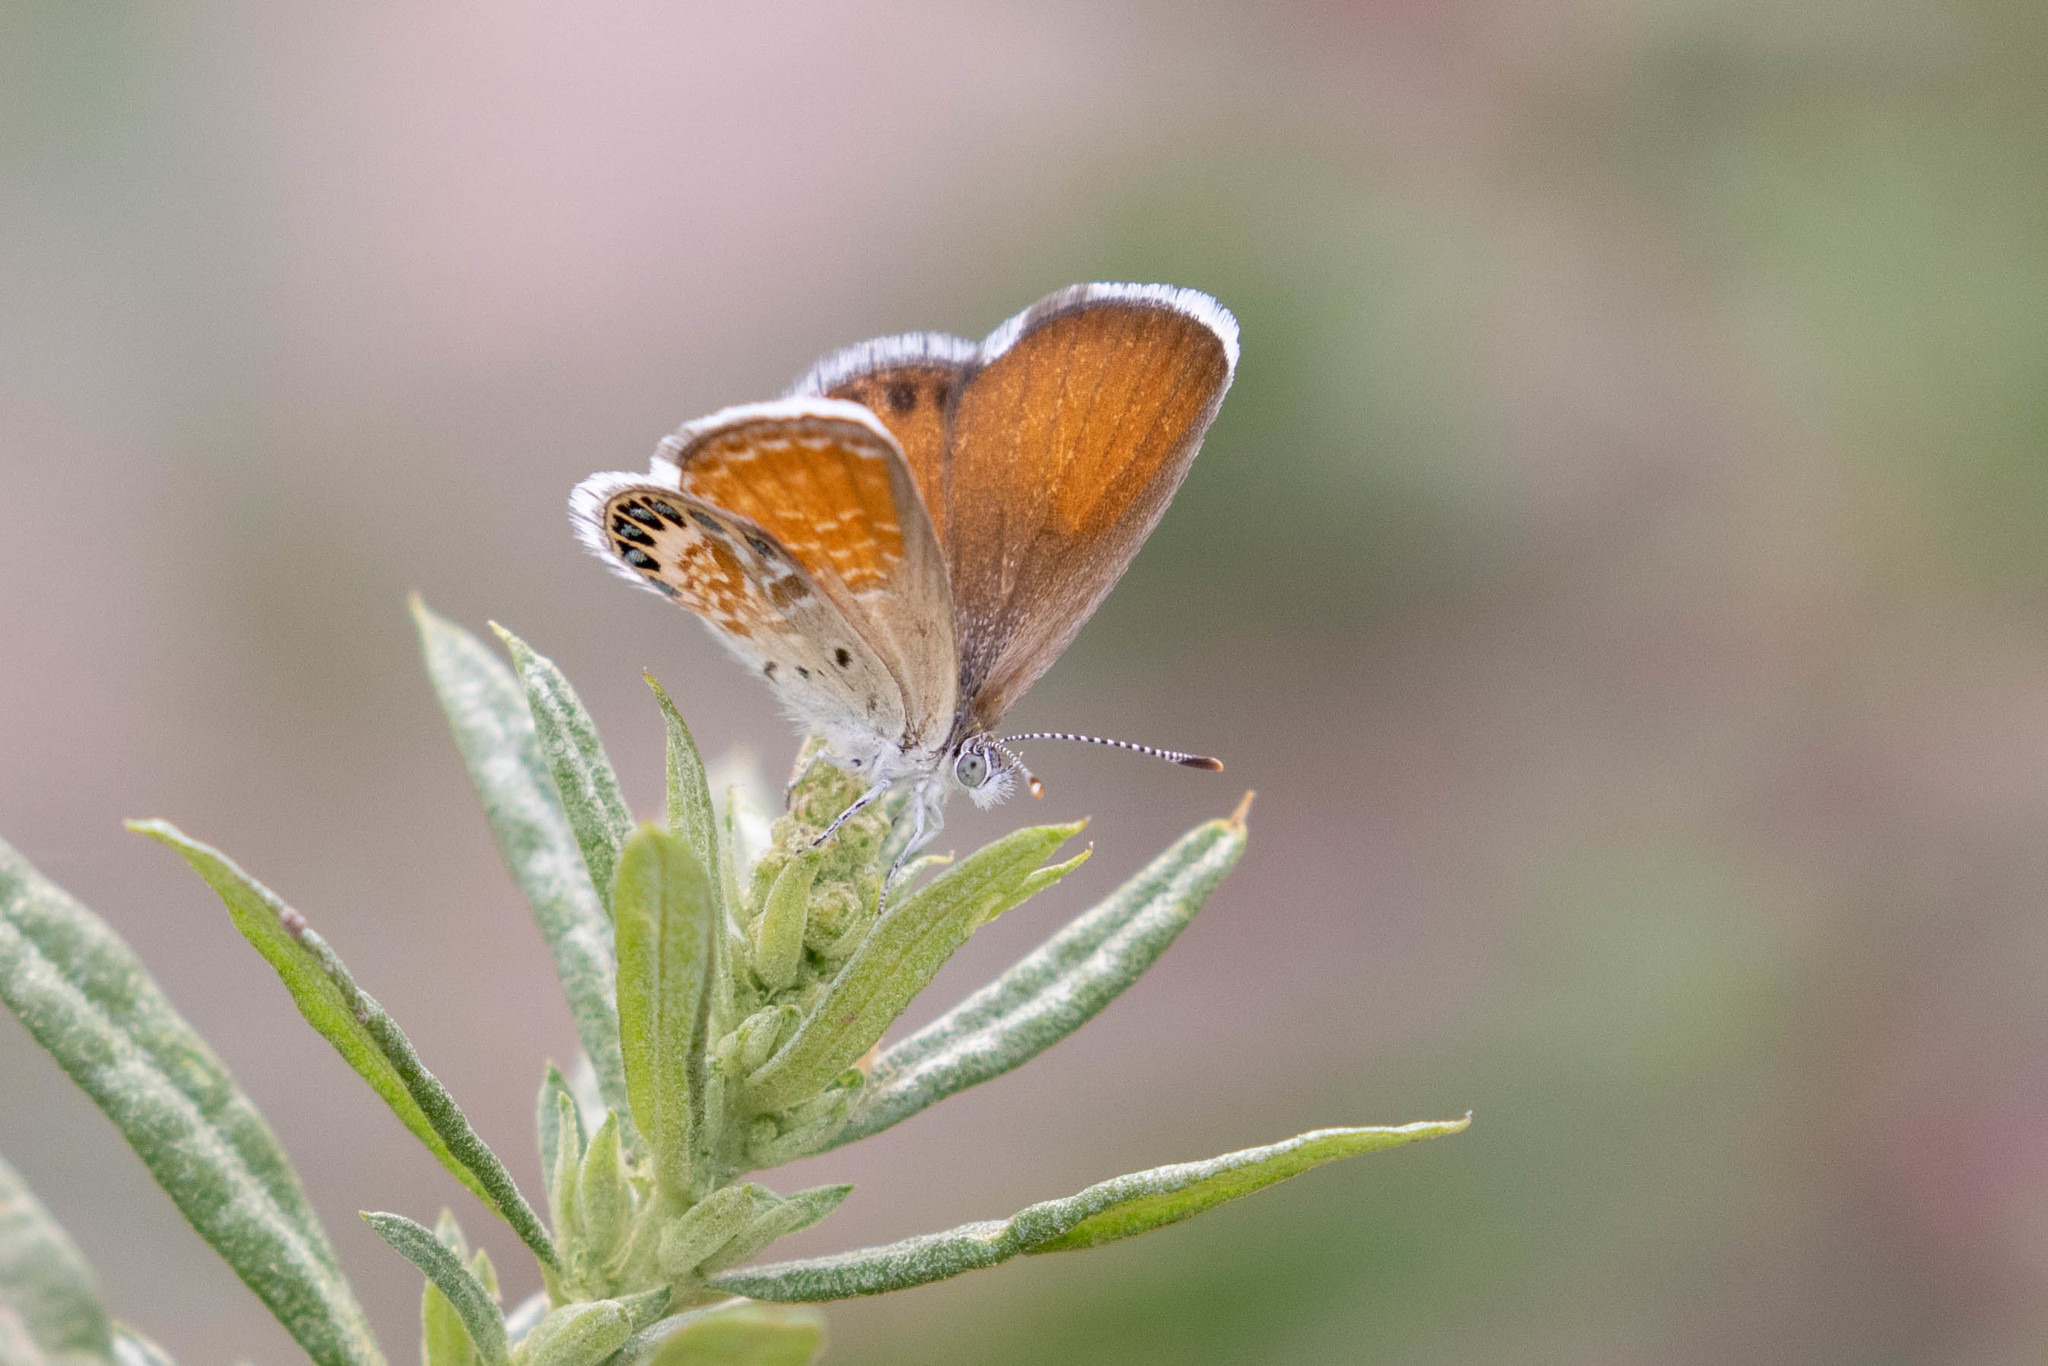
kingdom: Animalia
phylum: Arthropoda
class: Insecta
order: Lepidoptera
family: Lycaenidae
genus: Brephidium
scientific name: Brephidium exilis
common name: Pygmy blue
